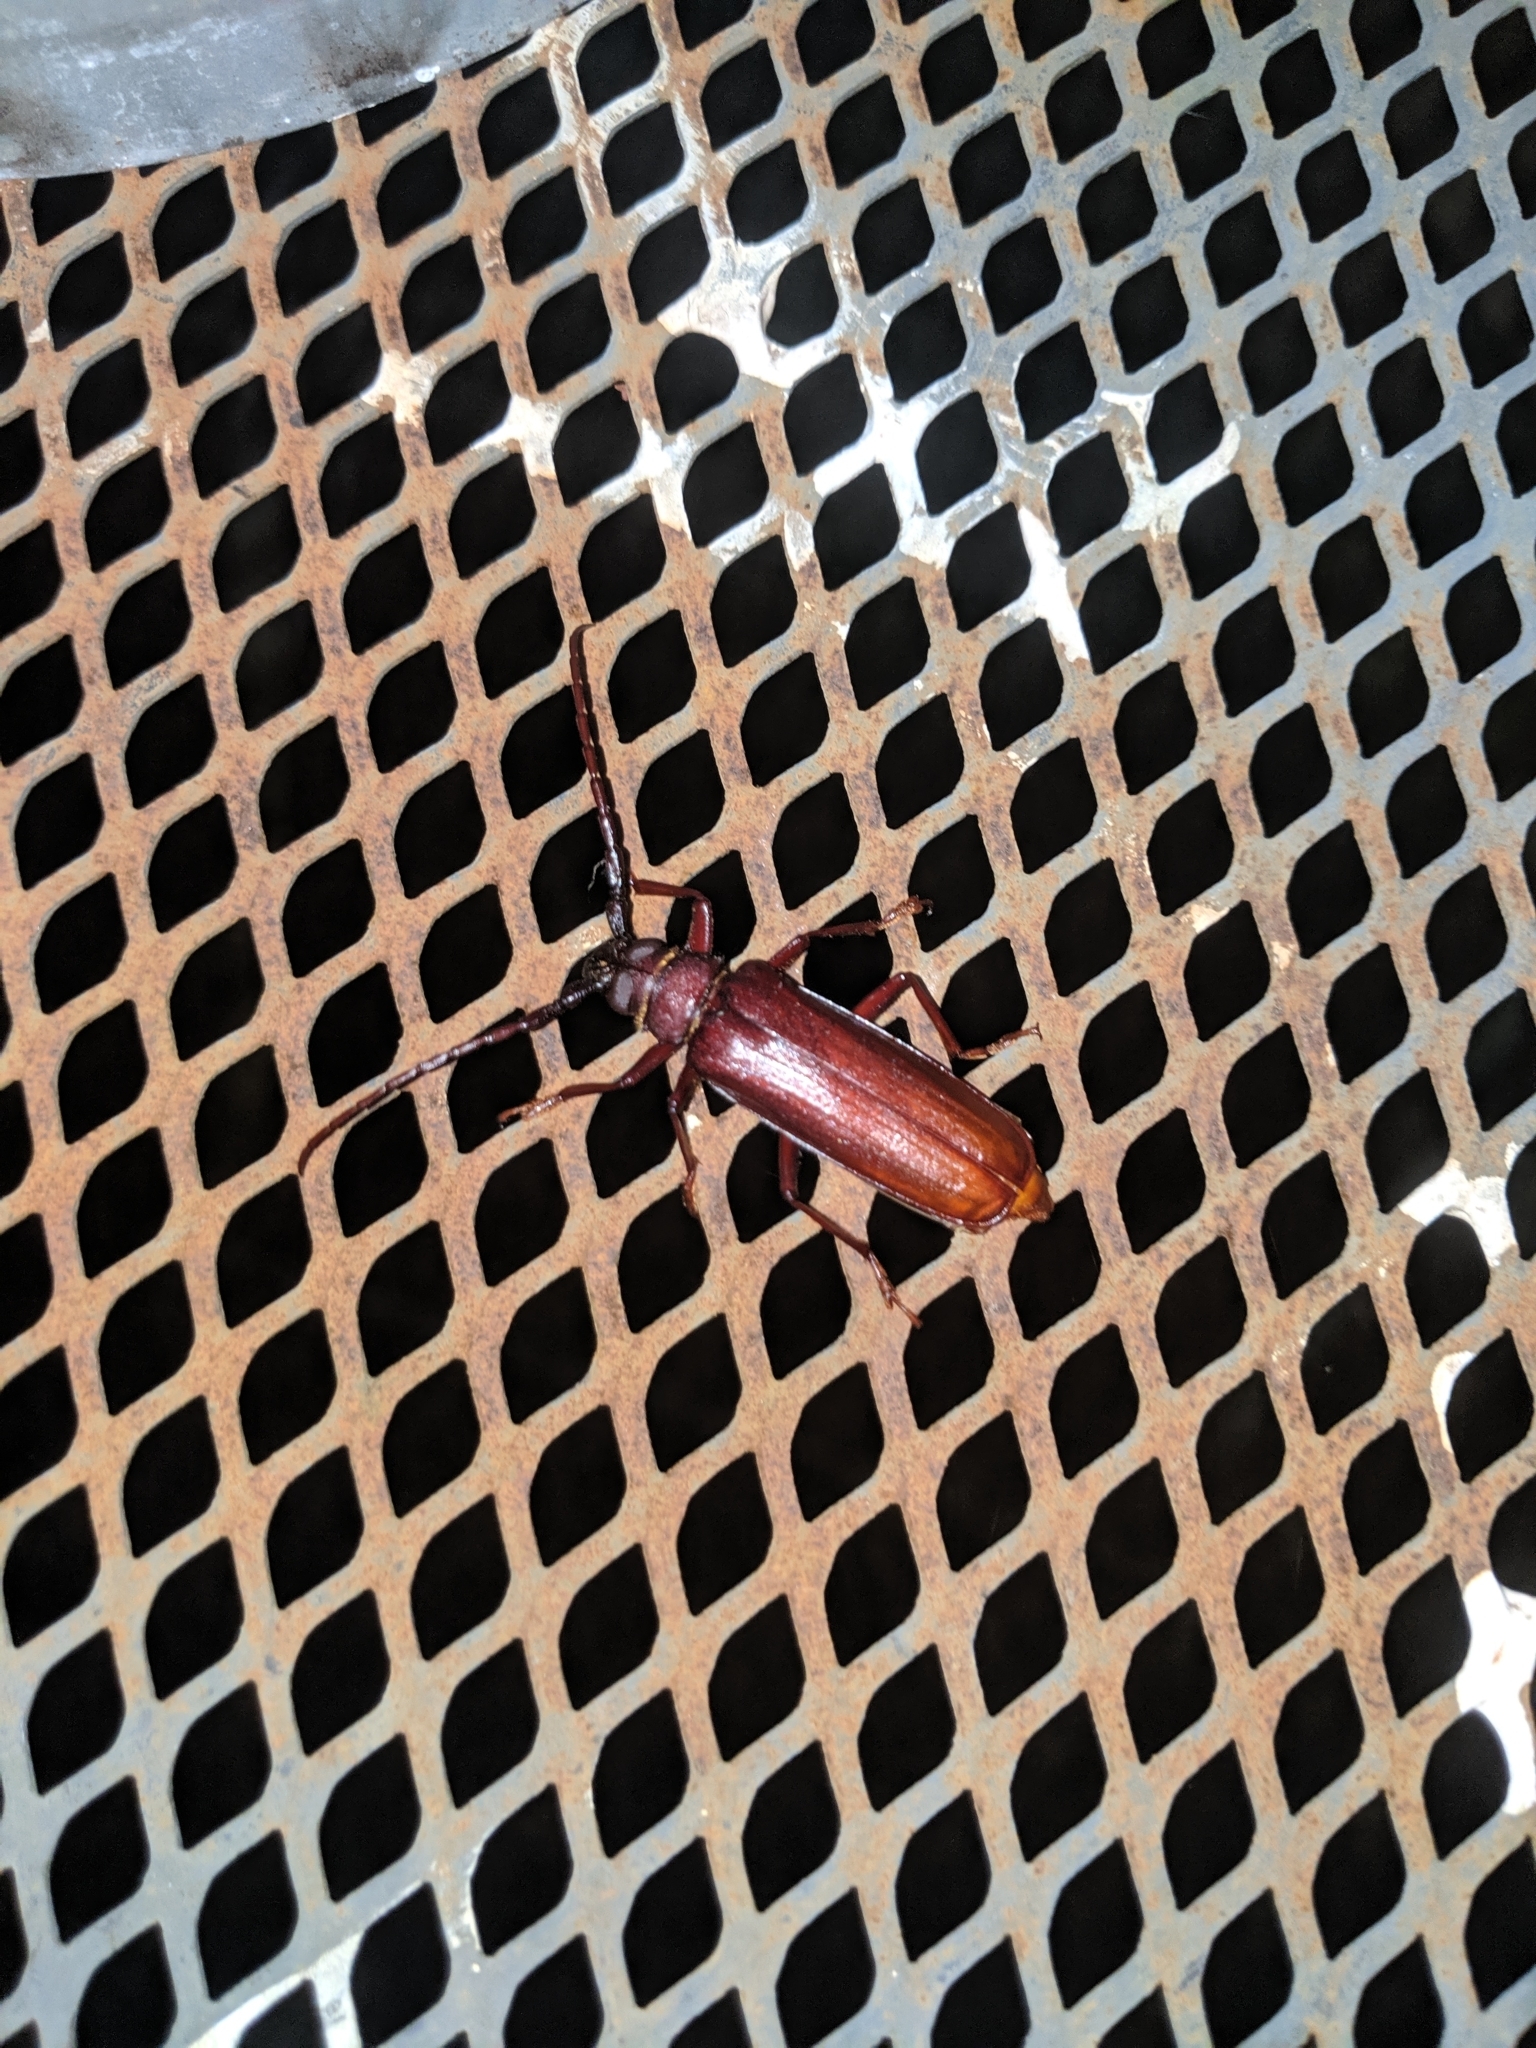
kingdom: Animalia
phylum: Arthropoda
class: Insecta
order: Coleoptera
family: Cerambycidae
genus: Orthosoma
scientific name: Orthosoma brunneum
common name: Brown prionid beetle
